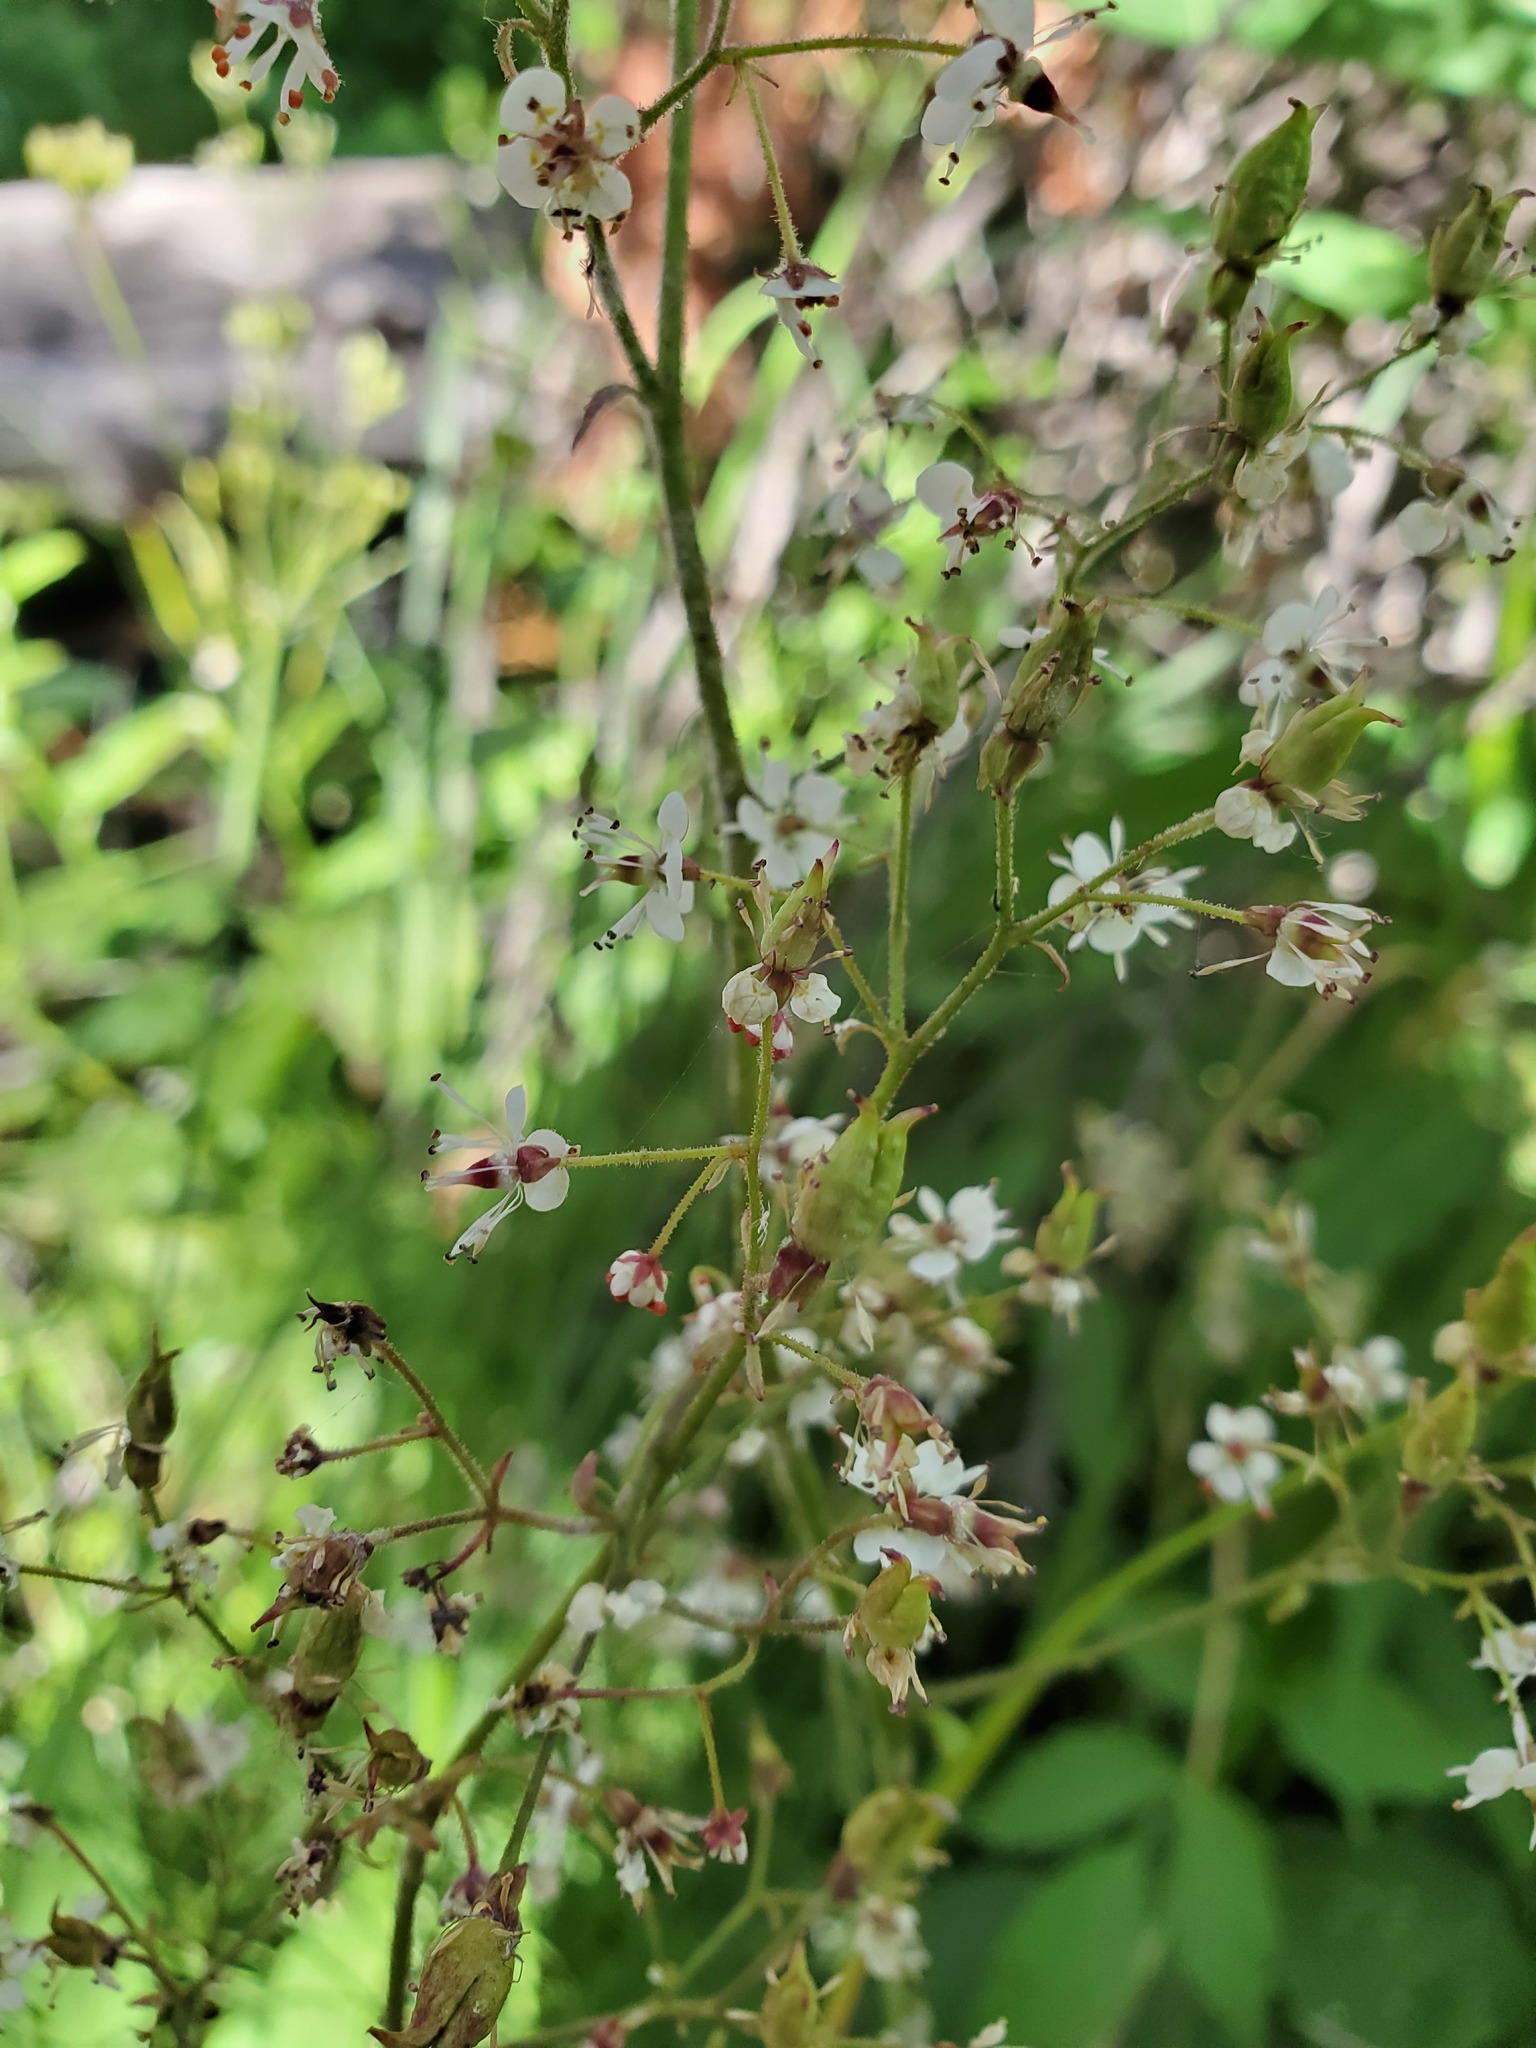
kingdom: Plantae
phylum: Tracheophyta
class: Magnoliopsida
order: Saxifragales
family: Saxifragaceae
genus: Micranthes
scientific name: Micranthes odontoloma
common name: Brook saxifrage
